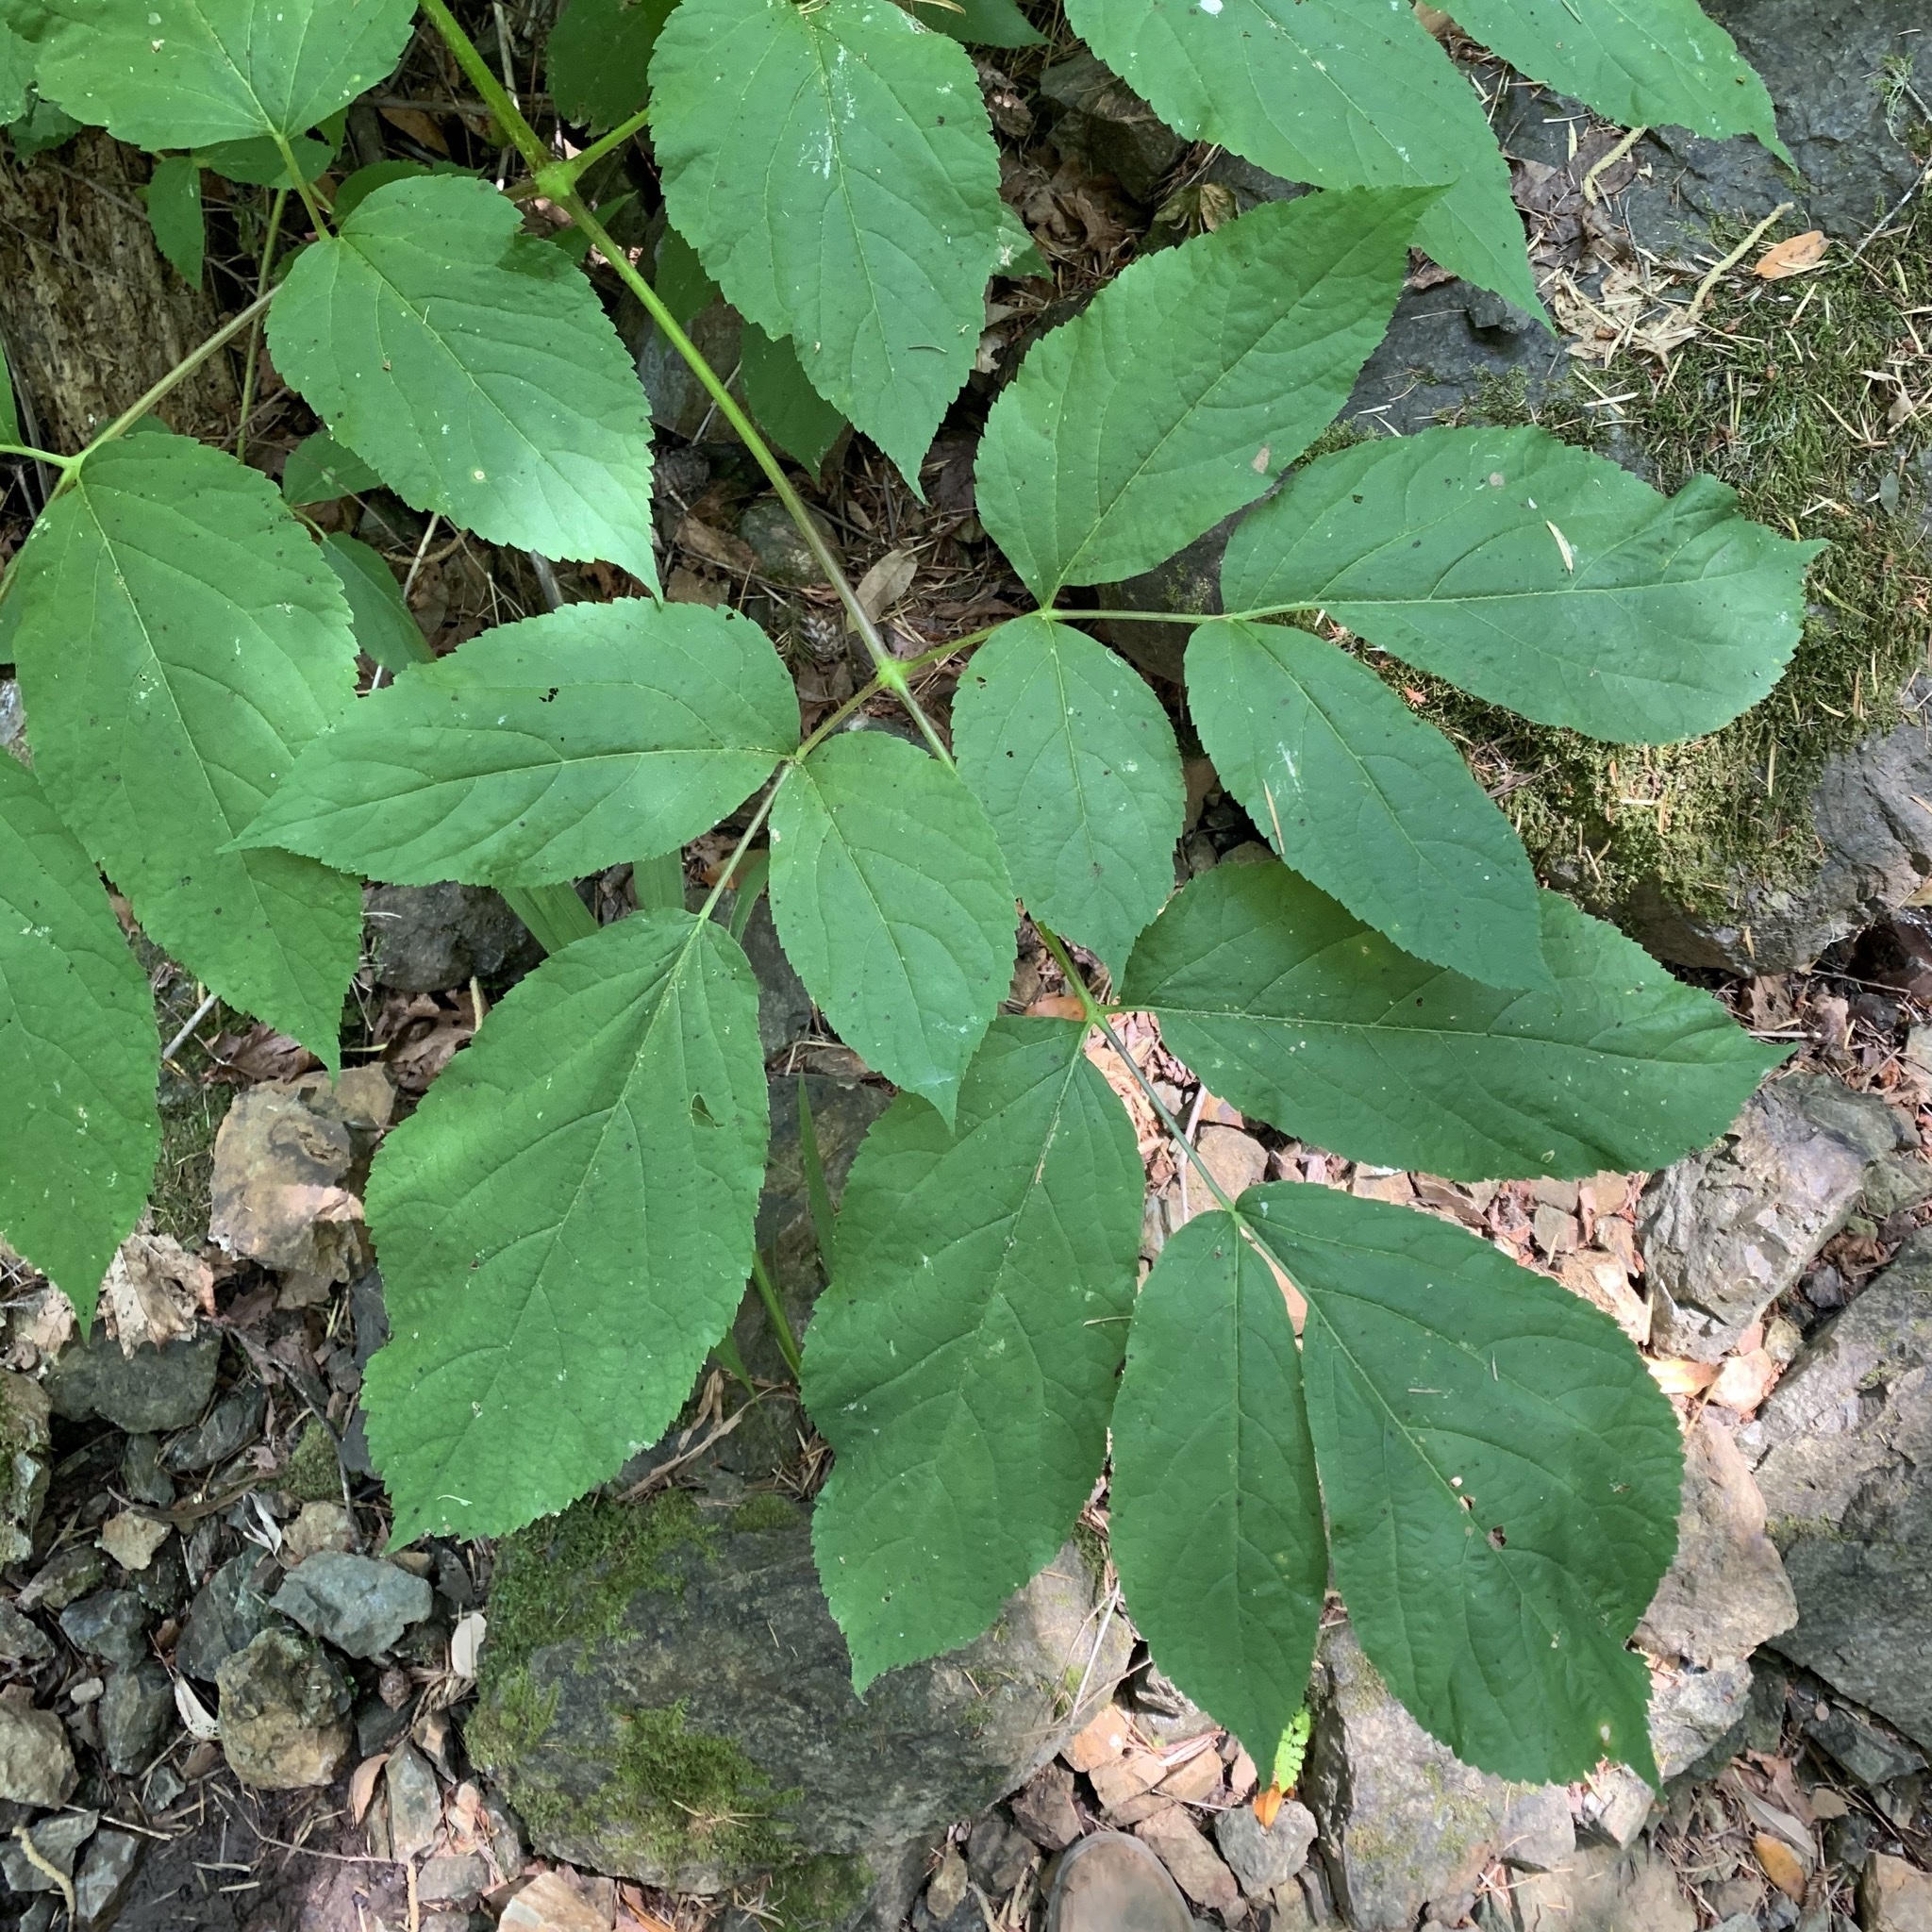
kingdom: Plantae
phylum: Tracheophyta
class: Magnoliopsida
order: Apiales
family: Araliaceae
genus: Aralia
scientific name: Aralia californica
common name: California-ginseng
